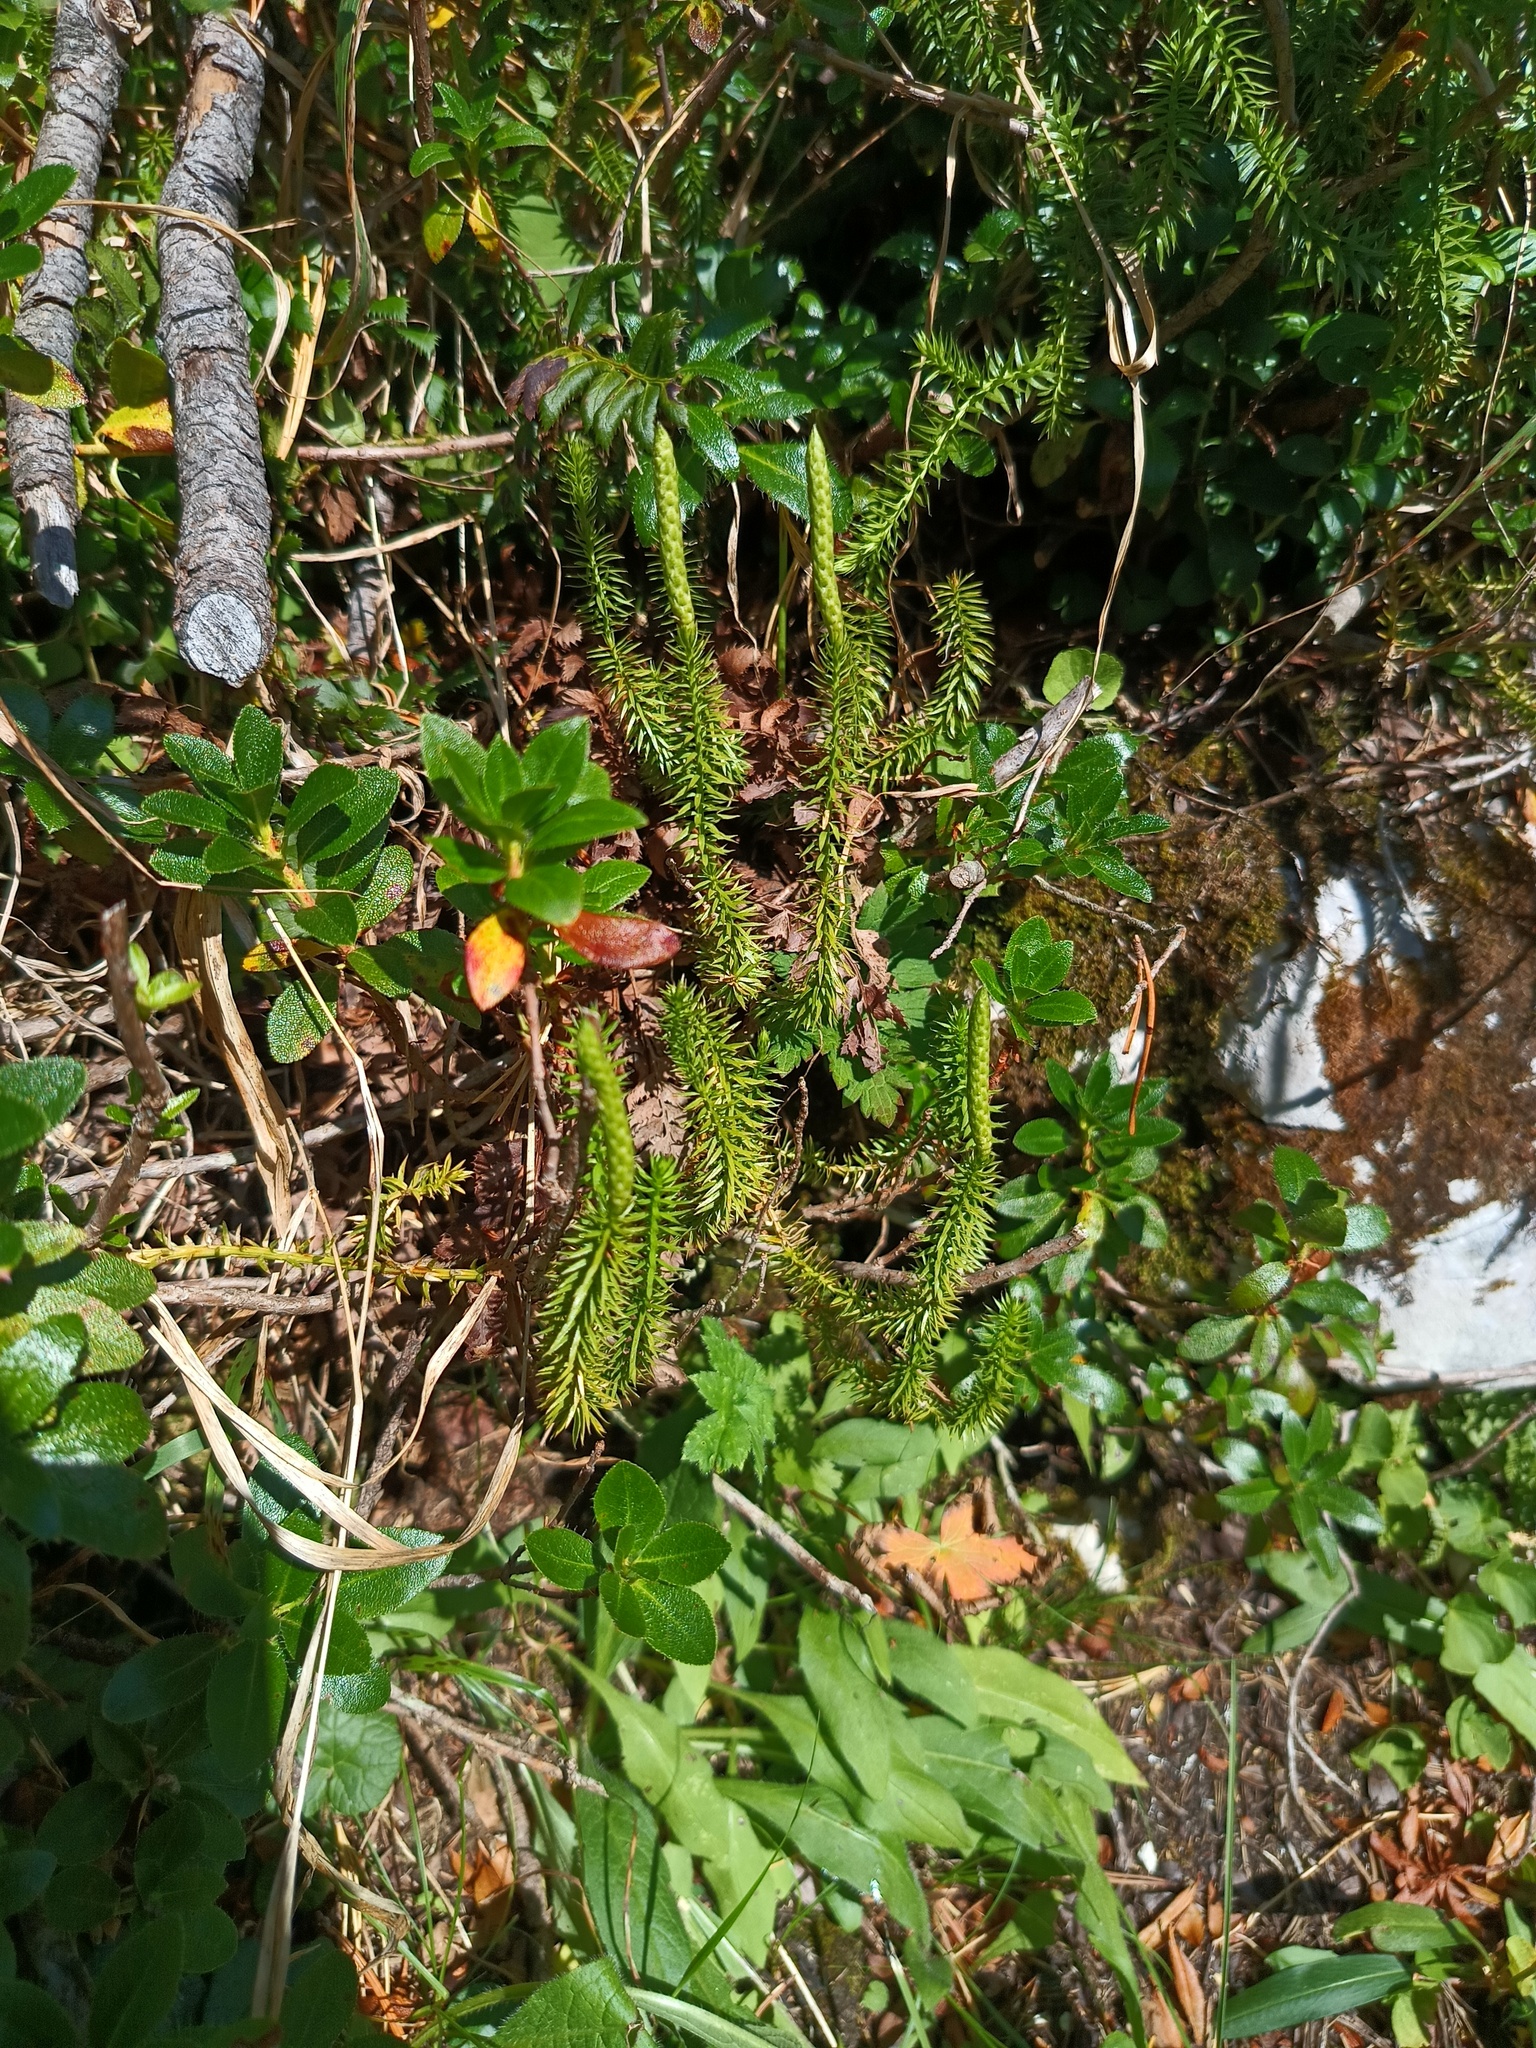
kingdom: Plantae
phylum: Tracheophyta
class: Lycopodiopsida
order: Lycopodiales
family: Lycopodiaceae
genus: Spinulum
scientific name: Spinulum annotinum
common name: Interrupted club-moss
